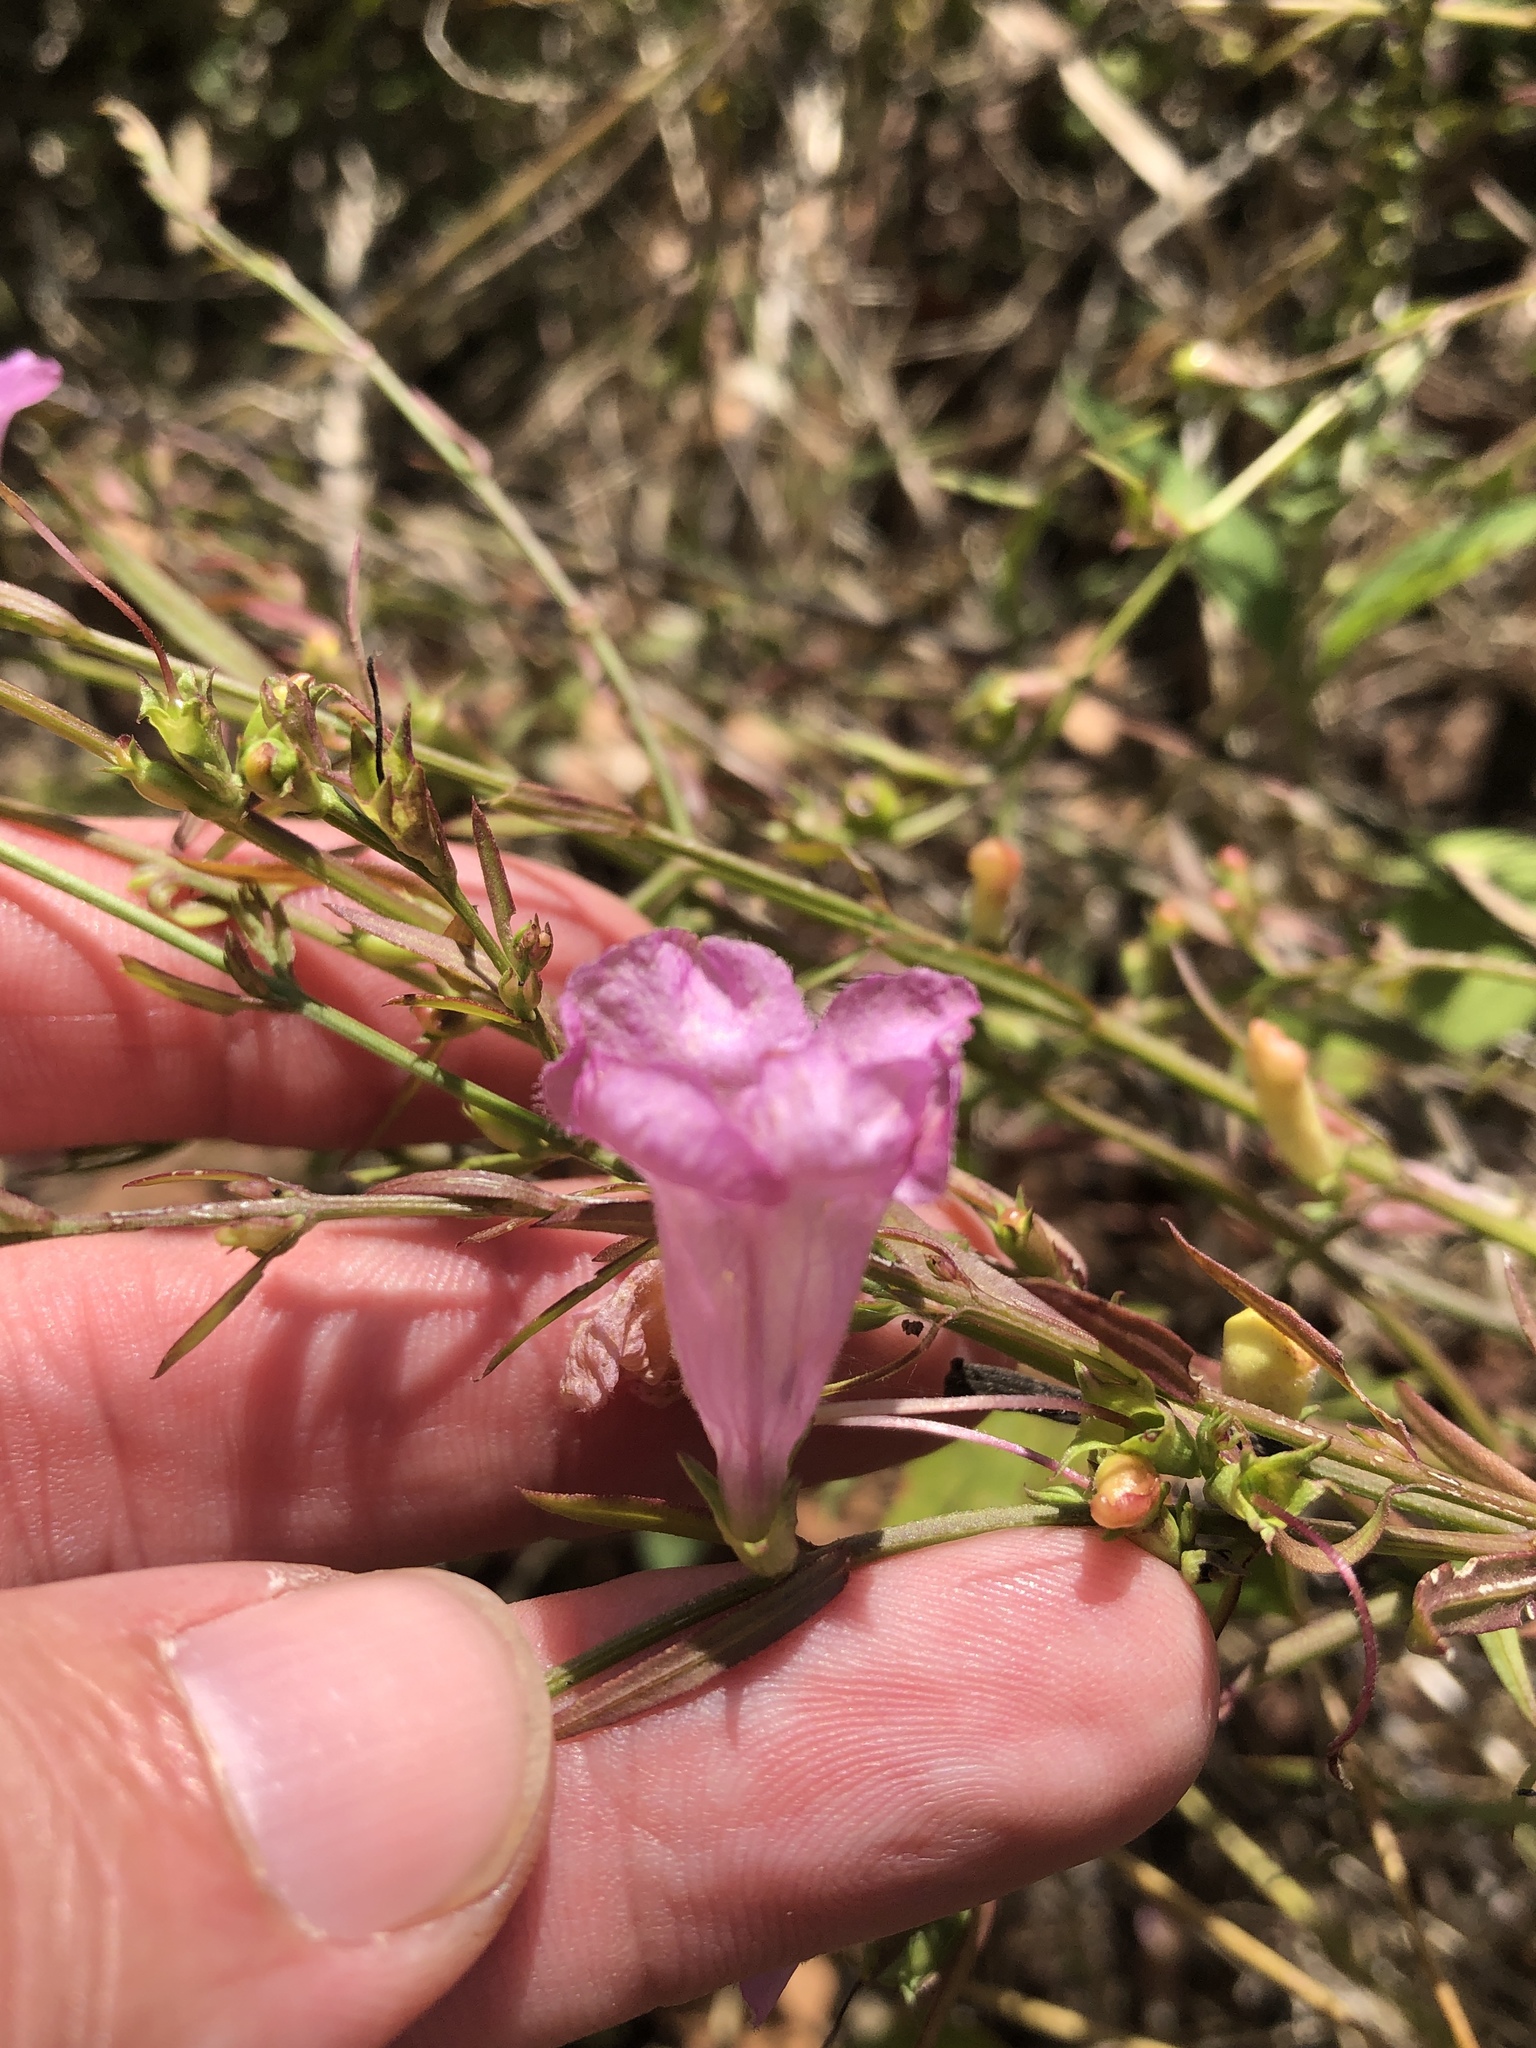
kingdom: Plantae
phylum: Tracheophyta
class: Magnoliopsida
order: Lamiales
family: Orobanchaceae
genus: Agalinis
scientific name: Agalinis heterophylla
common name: Prairie agalinis
